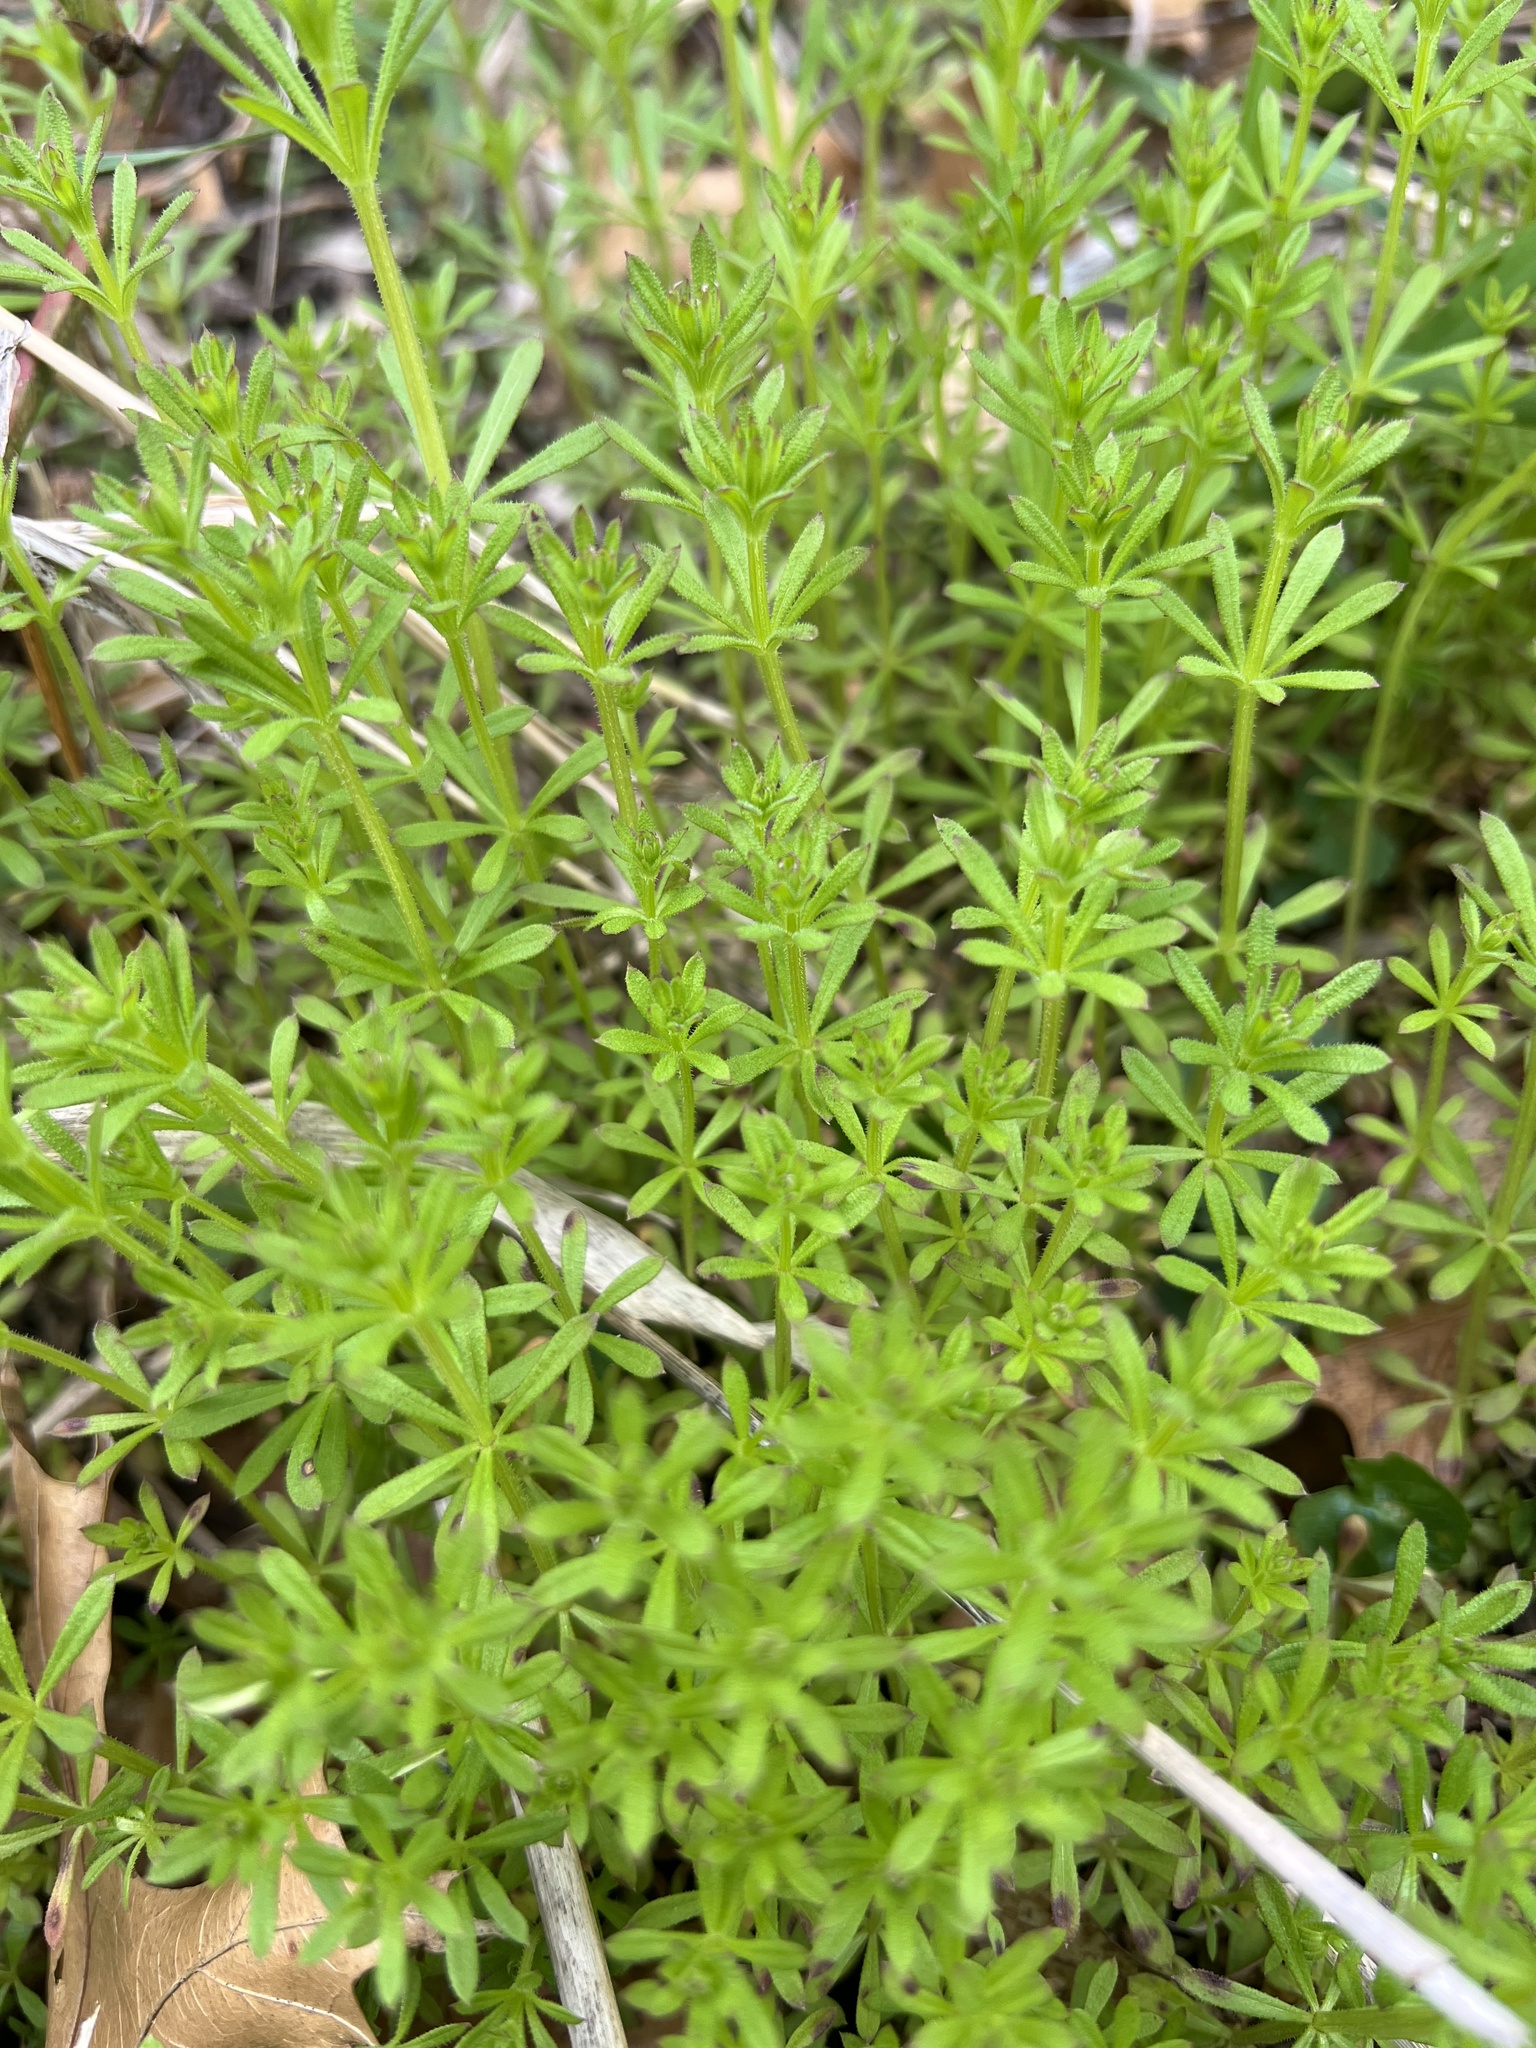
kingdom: Plantae
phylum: Tracheophyta
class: Magnoliopsida
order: Gentianales
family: Rubiaceae
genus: Galium
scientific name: Galium aparine
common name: Cleavers
